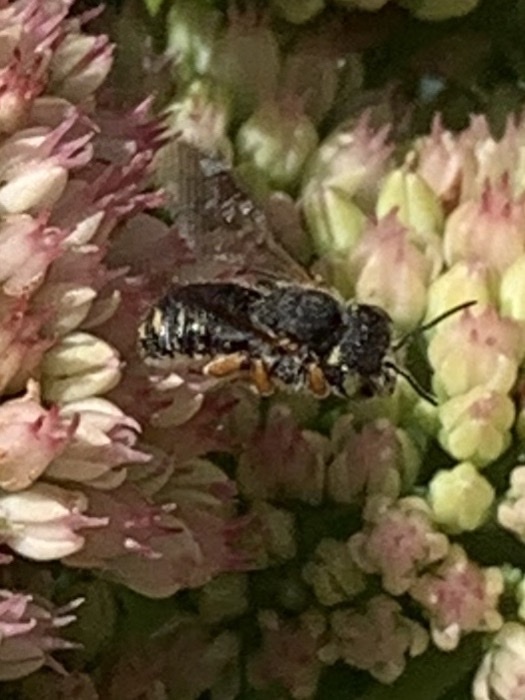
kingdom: Animalia
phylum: Arthropoda
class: Insecta
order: Hymenoptera
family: Megachilidae
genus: Anthidium
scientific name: Anthidium oblongatum
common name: Oblong wool carder bee
